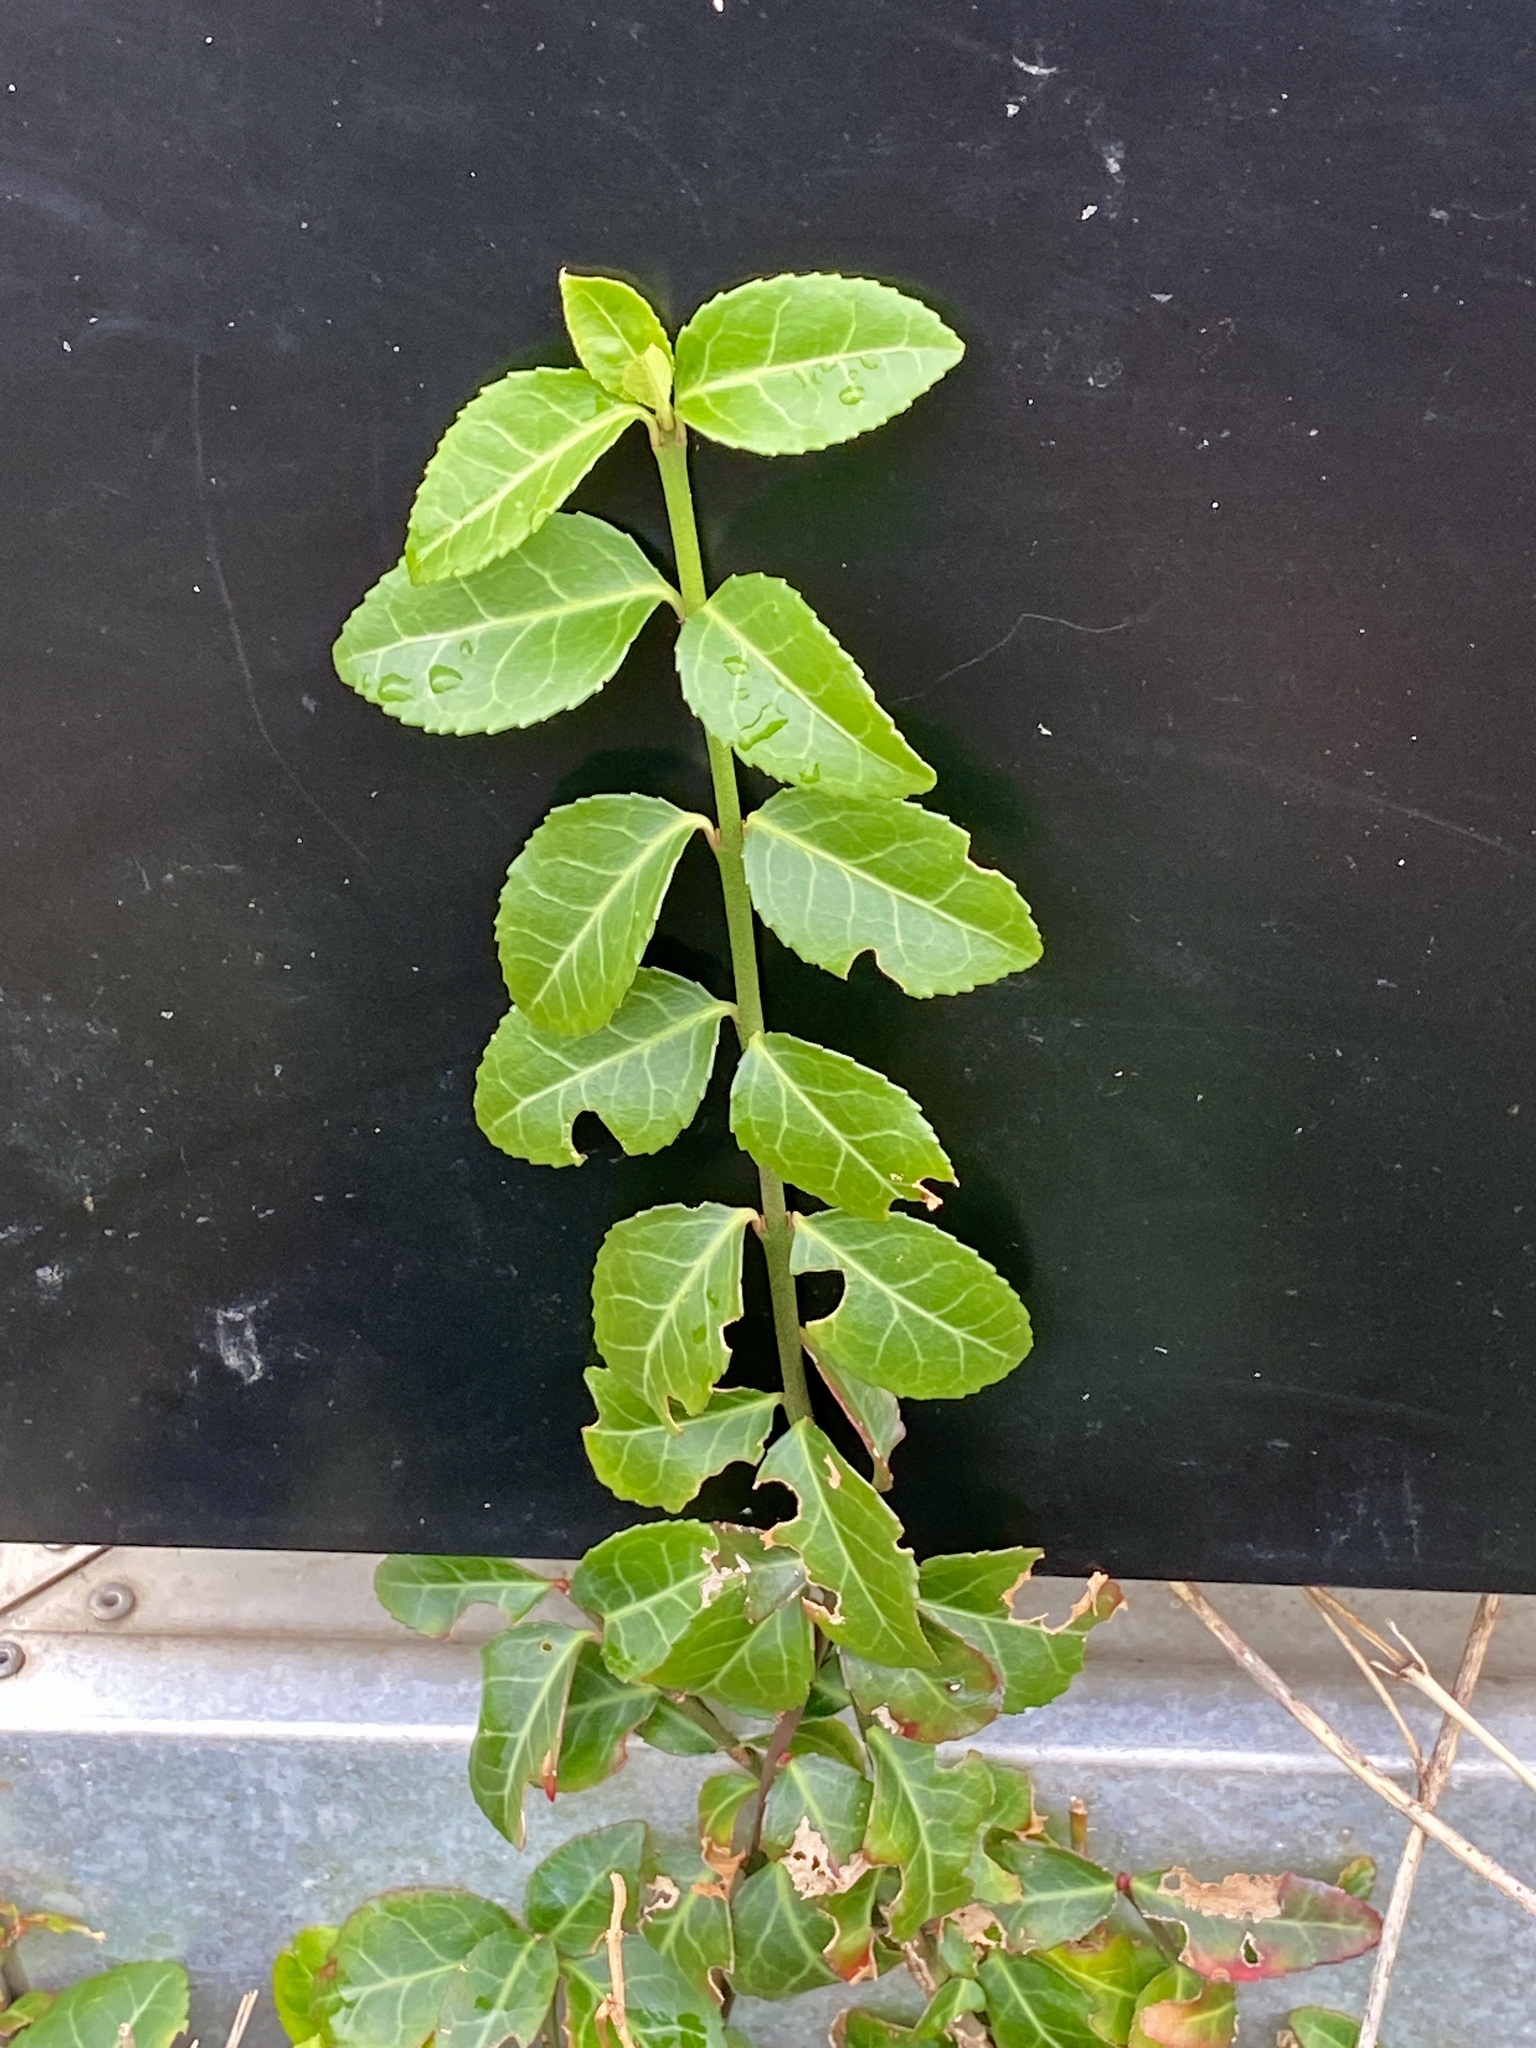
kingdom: Plantae
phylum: Tracheophyta
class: Magnoliopsida
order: Celastrales
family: Celastraceae
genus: Euonymus
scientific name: Euonymus fortunei
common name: Climbing euonymus
